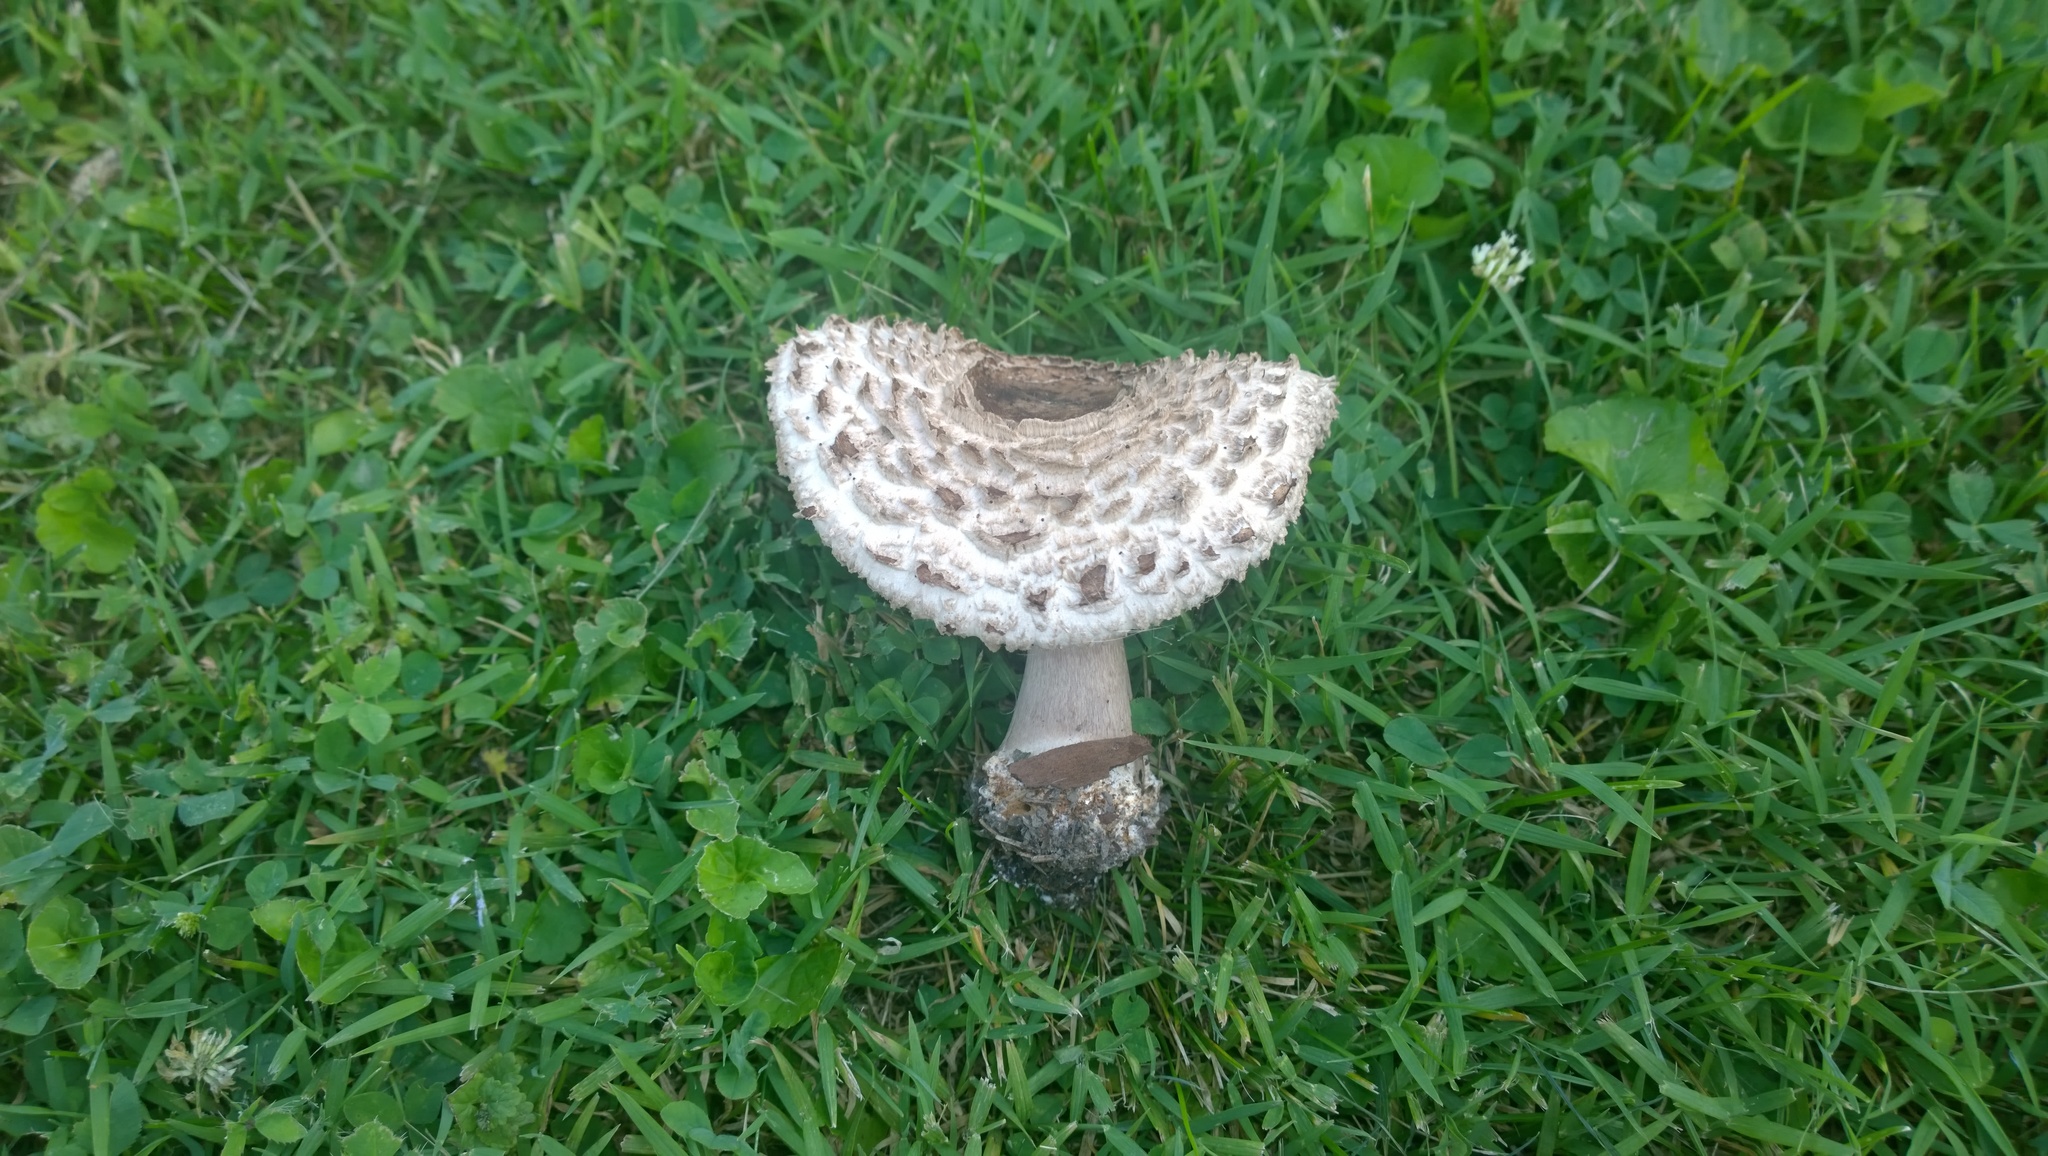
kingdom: Fungi
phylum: Basidiomycota
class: Agaricomycetes
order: Agaricales
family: Agaricaceae
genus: Chlorophyllum
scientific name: Chlorophyllum rhacodes
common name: Shaggy parasol
